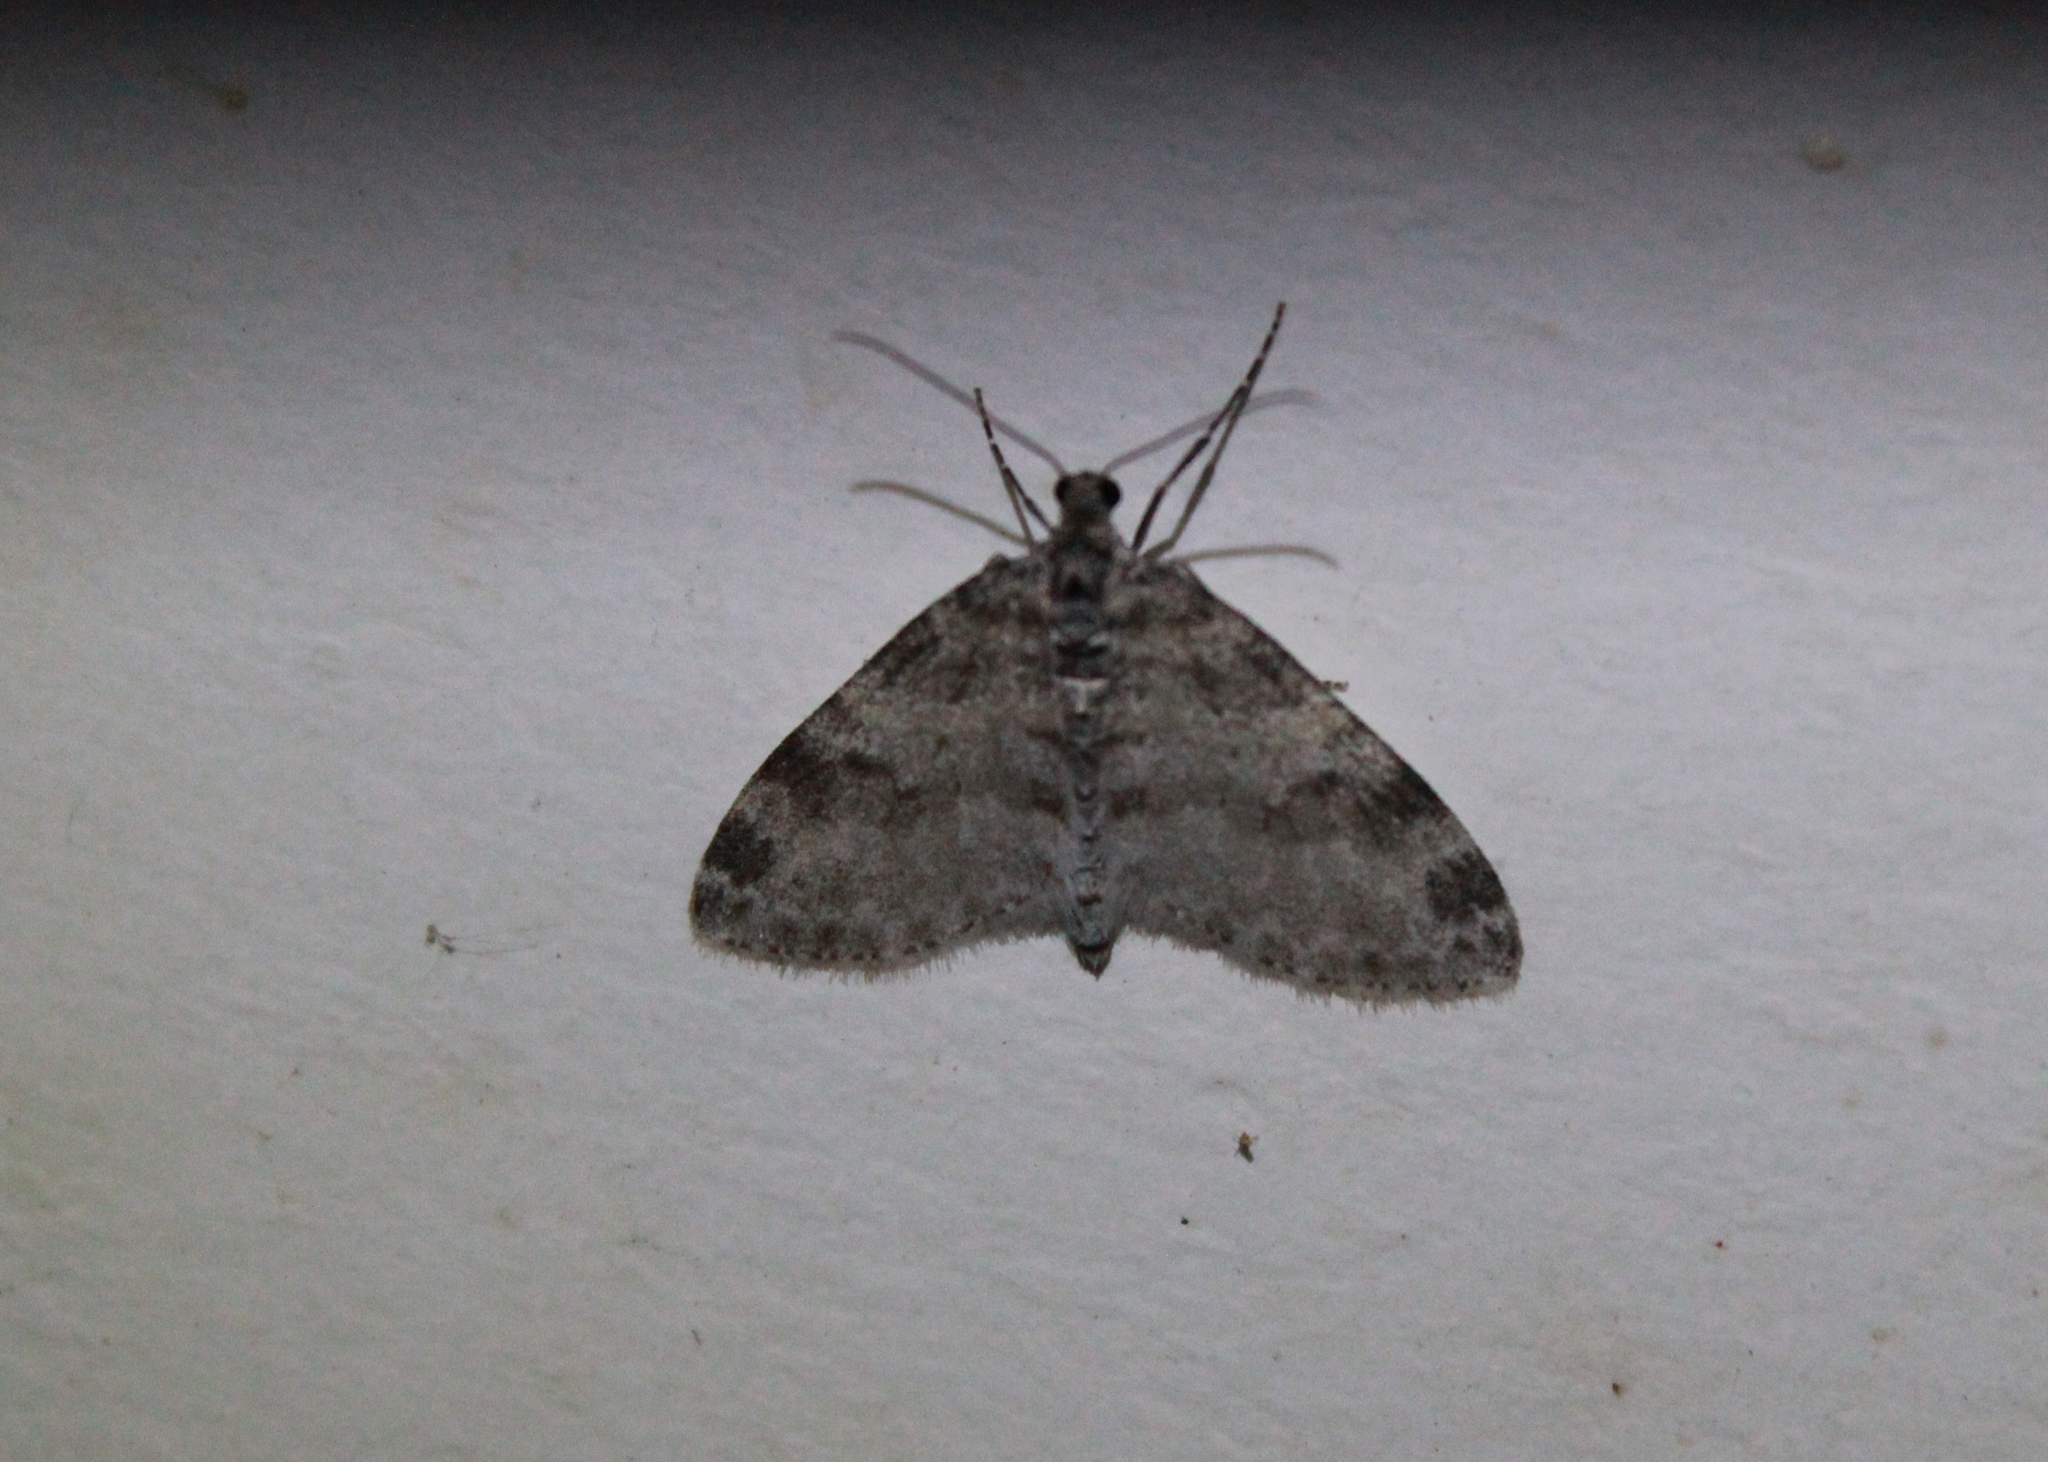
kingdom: Animalia
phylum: Arthropoda
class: Insecta
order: Lepidoptera
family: Geometridae
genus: Lobophora
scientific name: Lobophora nivigerata
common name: Powdered bigwing
